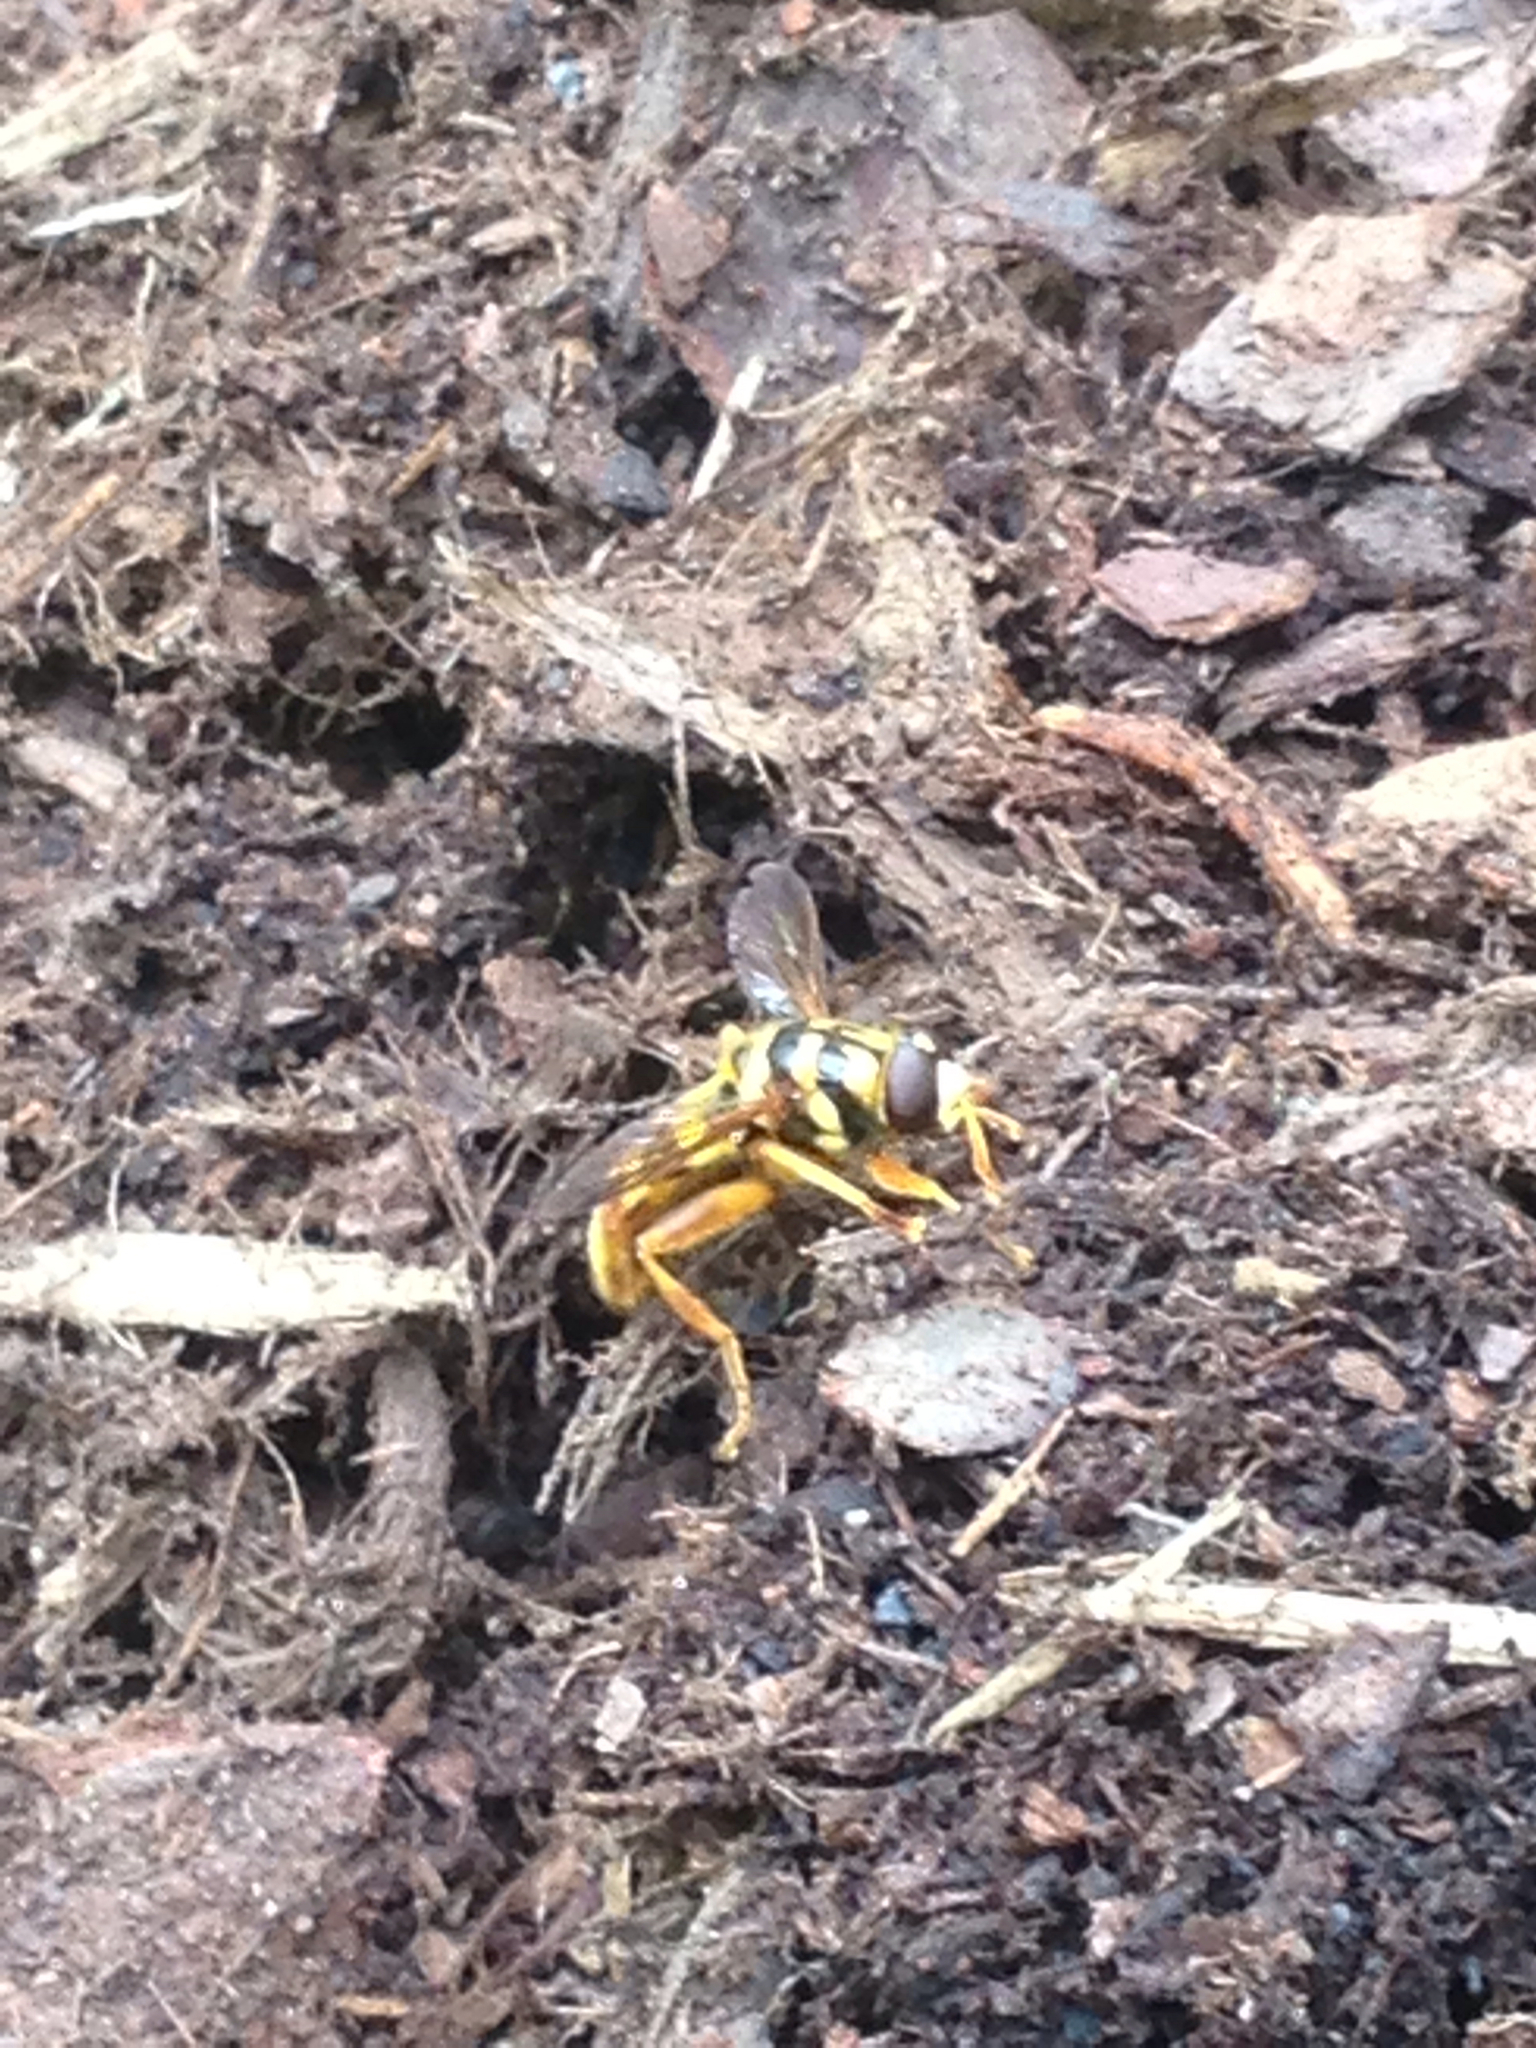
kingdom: Animalia
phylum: Arthropoda
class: Insecta
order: Diptera
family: Syrphidae
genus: Milesia
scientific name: Milesia virginiensis
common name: Virginia giant
